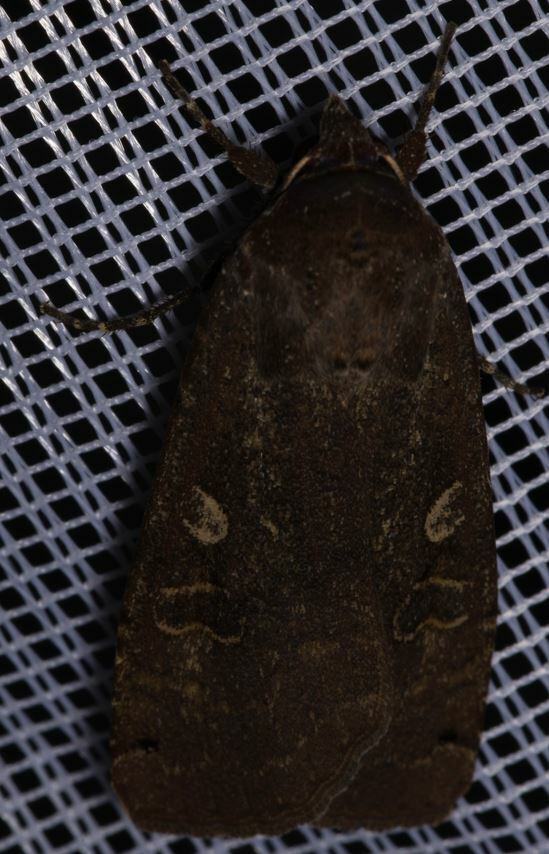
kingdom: Animalia
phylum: Arthropoda
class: Insecta
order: Lepidoptera
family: Noctuidae
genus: Noctua
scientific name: Noctua pronuba
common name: Large yellow underwing
